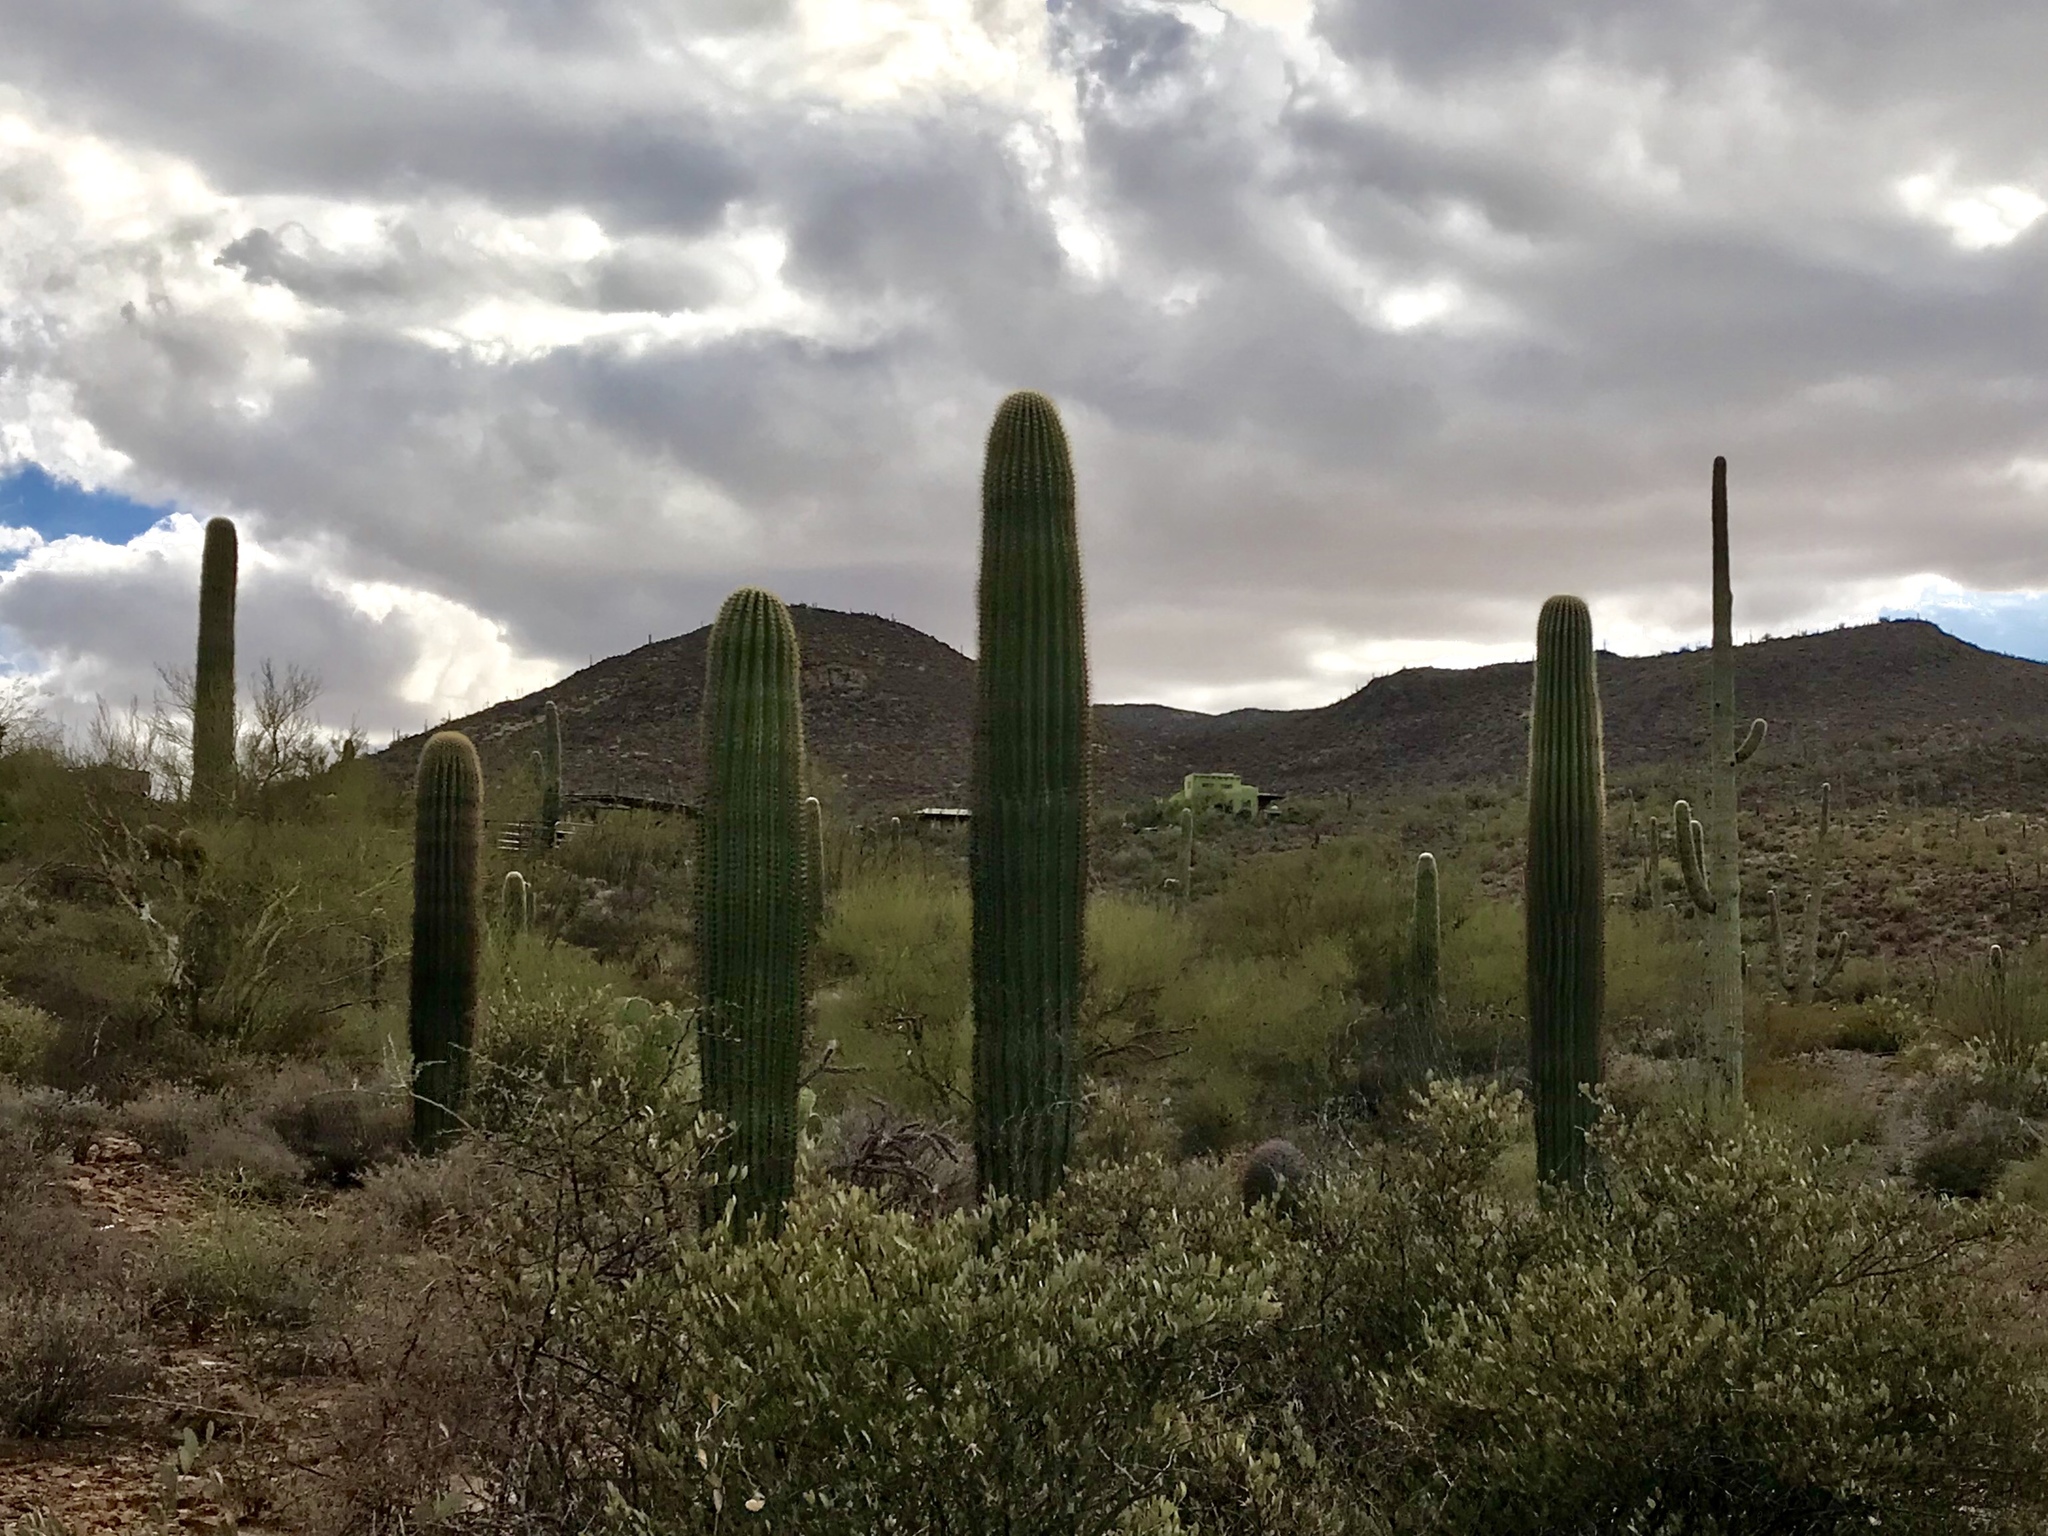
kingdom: Plantae
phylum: Tracheophyta
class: Magnoliopsida
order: Caryophyllales
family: Cactaceae
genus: Carnegiea
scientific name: Carnegiea gigantea
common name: Saguaro
